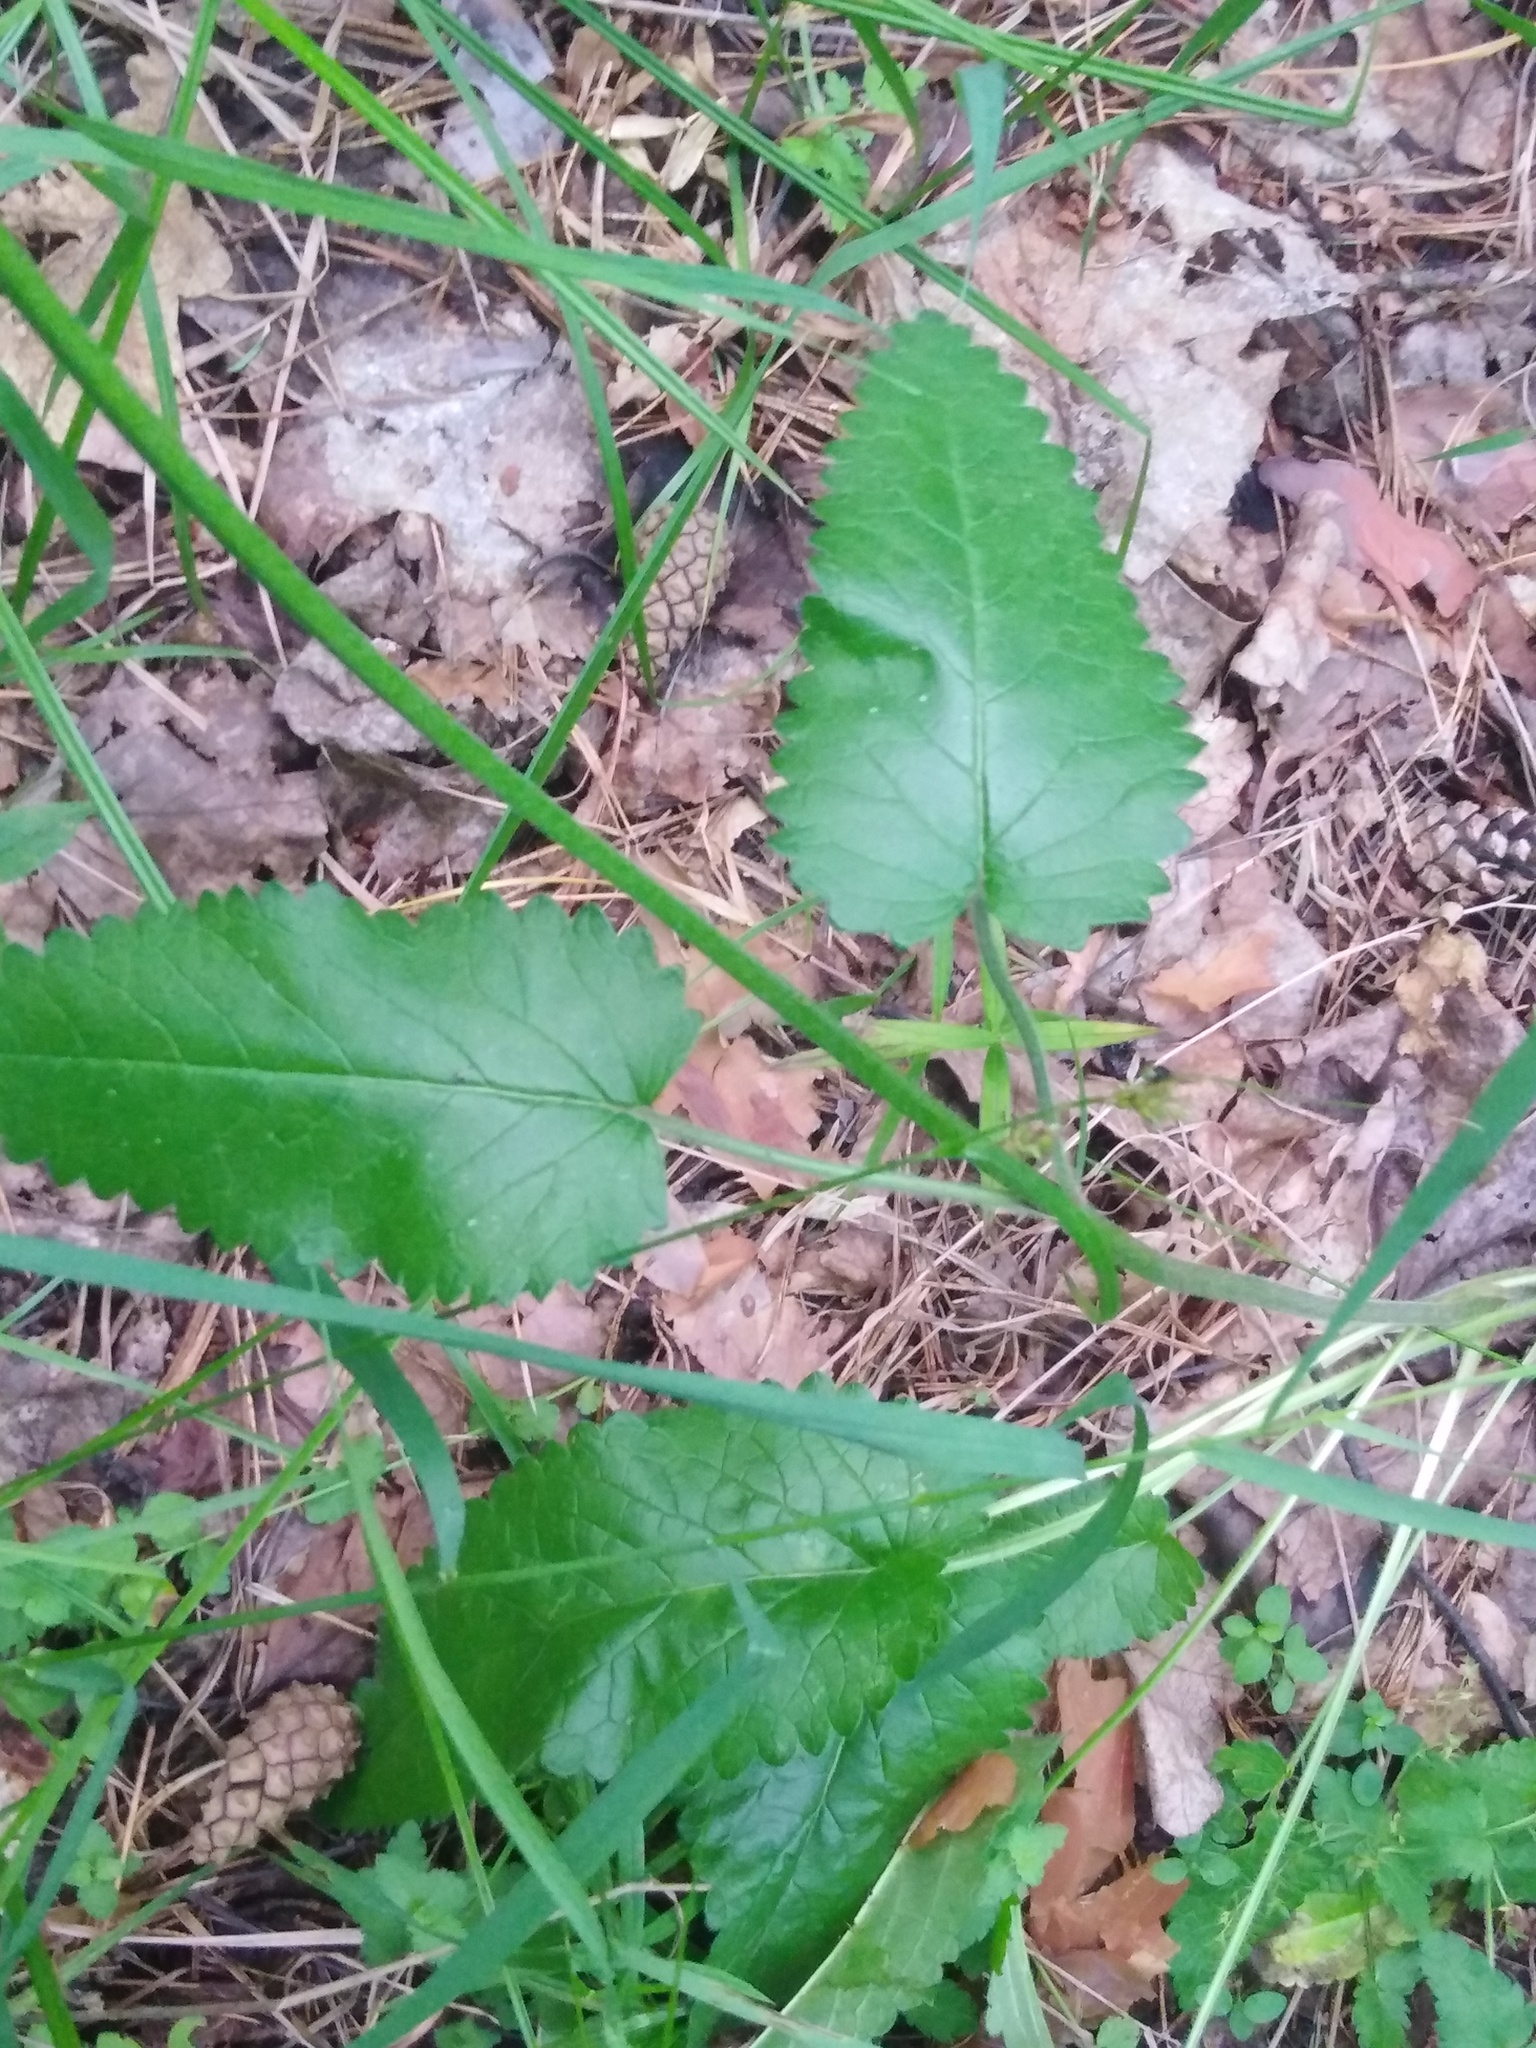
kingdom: Plantae
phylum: Tracheophyta
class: Magnoliopsida
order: Lamiales
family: Lamiaceae
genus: Betonica
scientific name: Betonica officinalis
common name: Bishop's-wort
